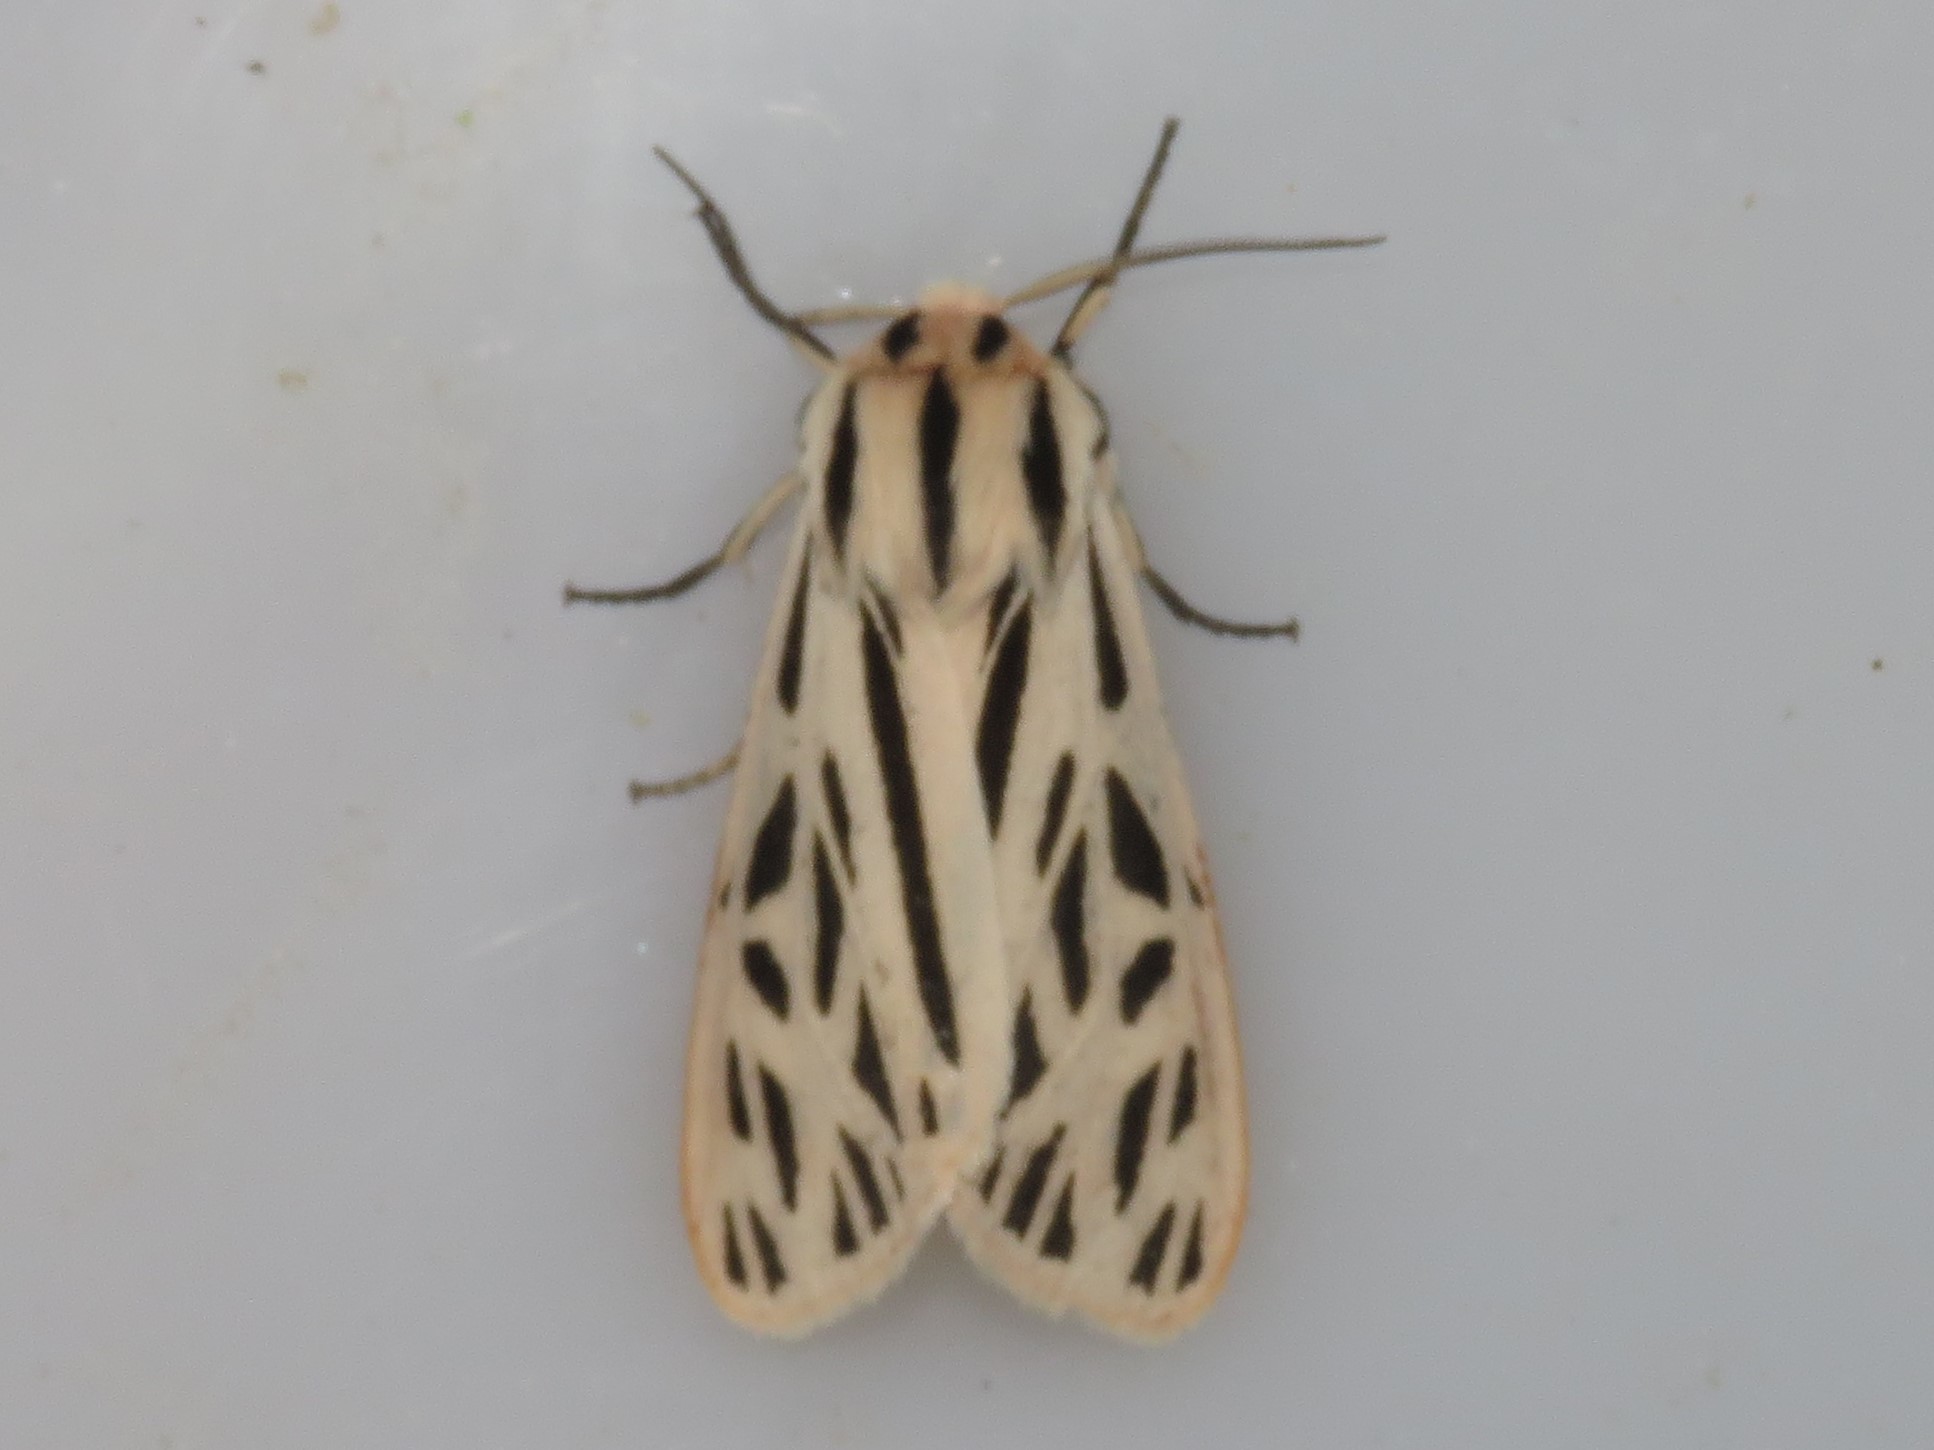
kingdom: Animalia
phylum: Arthropoda
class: Insecta
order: Lepidoptera
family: Erebidae
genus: Apantesis
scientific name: Apantesis arge
